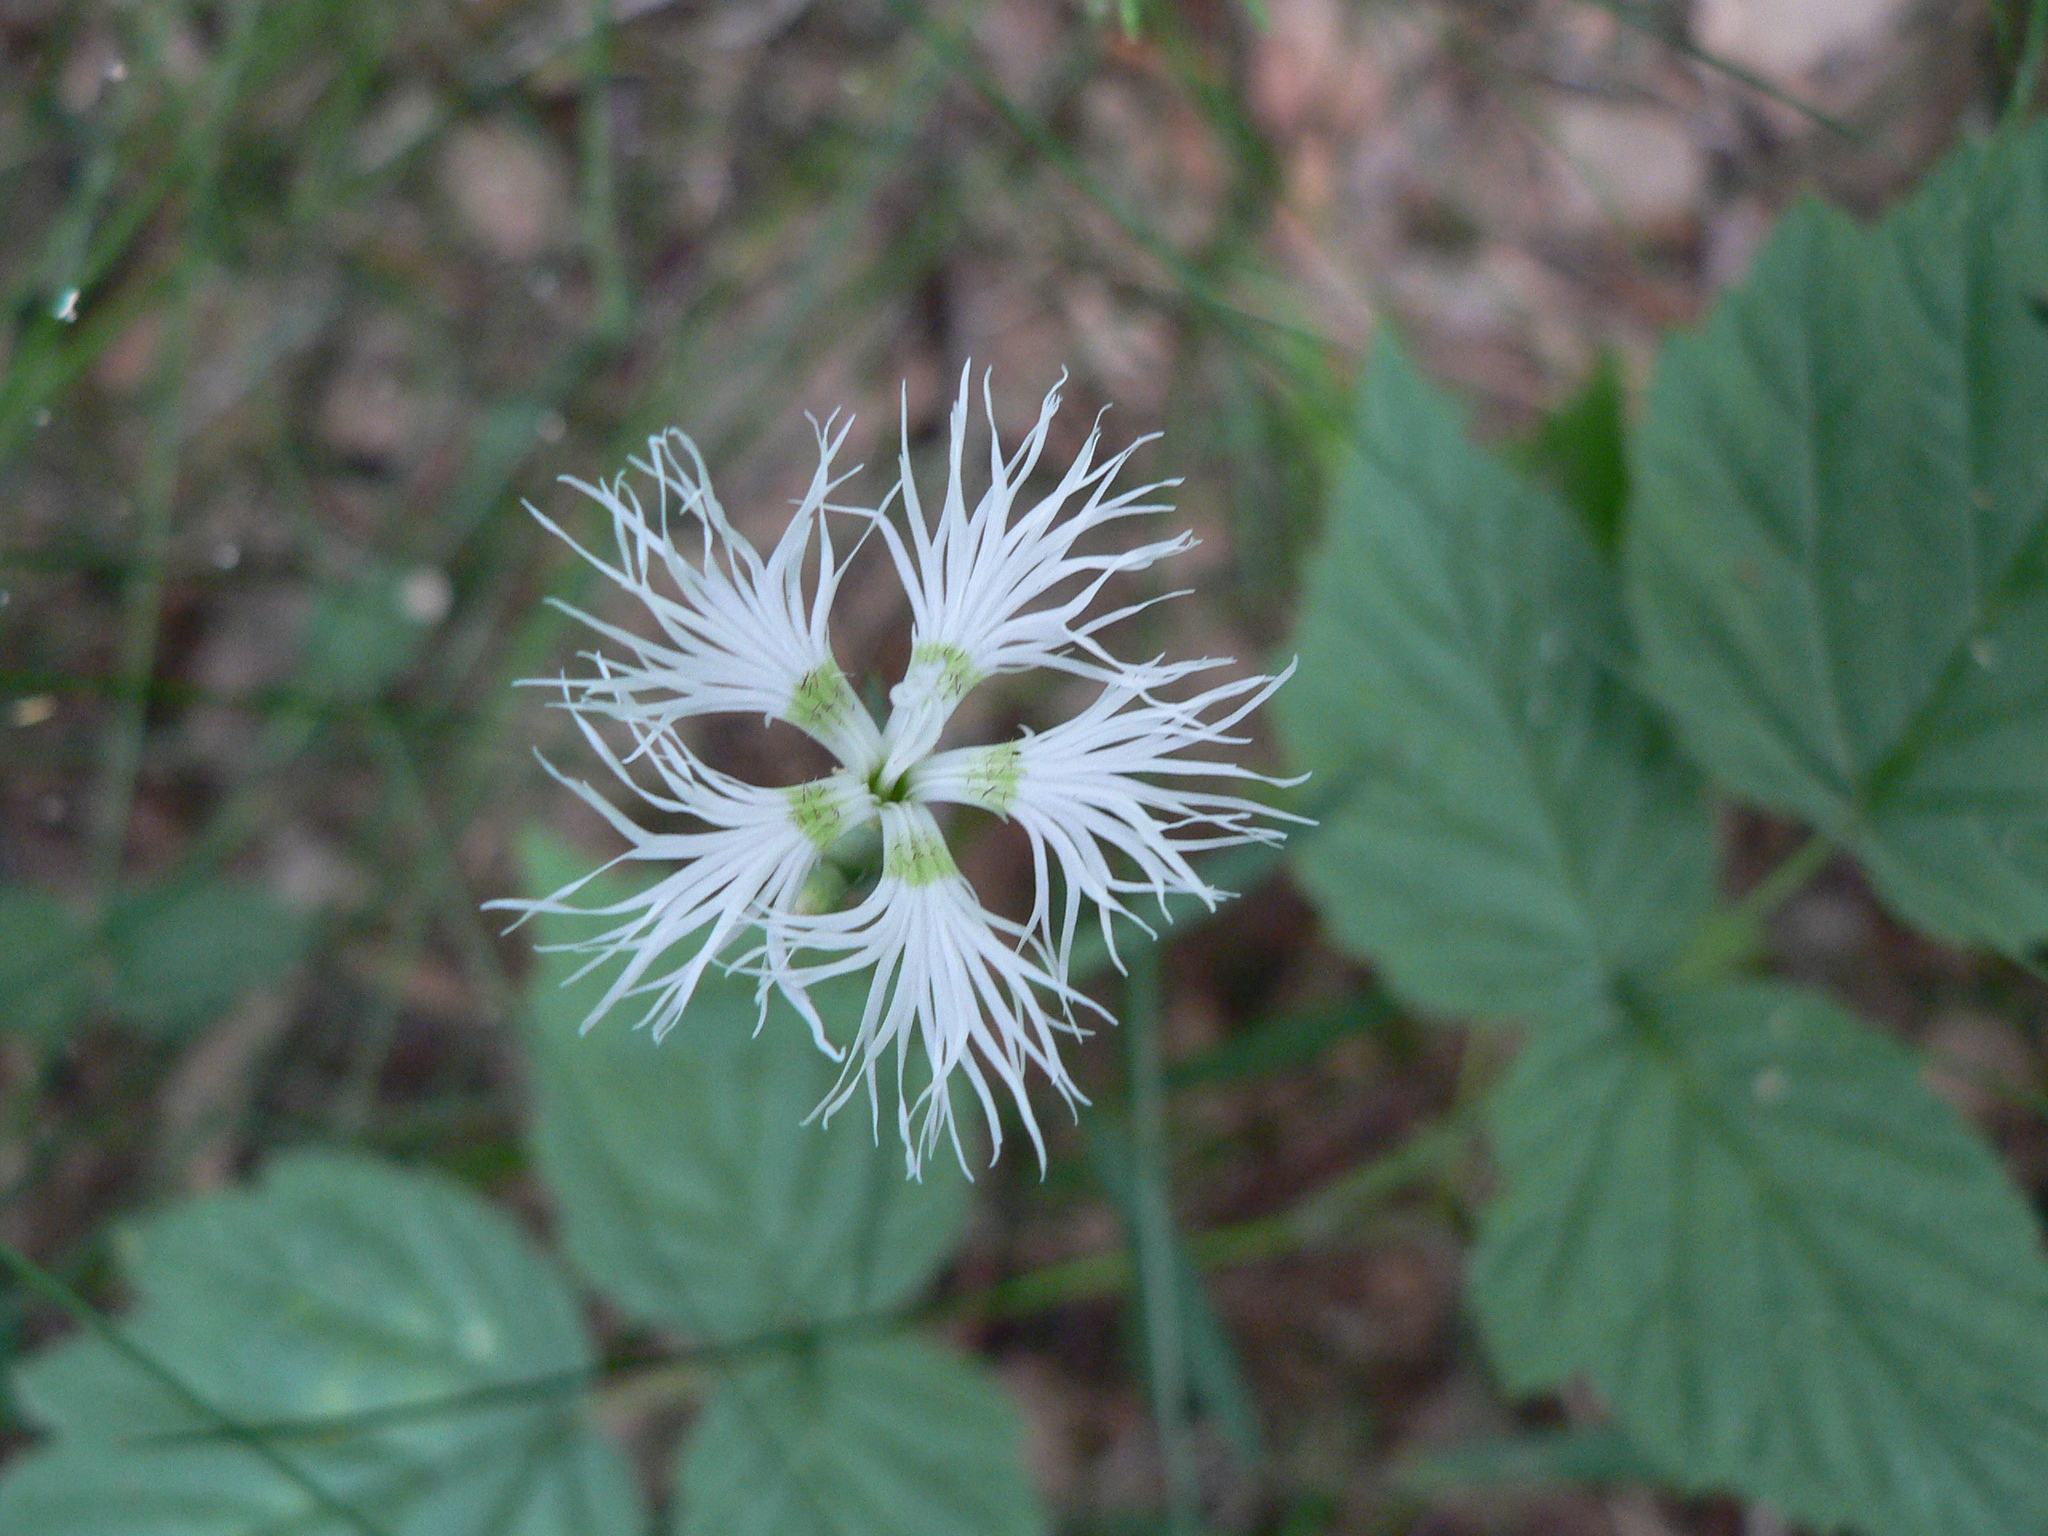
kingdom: Plantae
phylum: Tracheophyta
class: Magnoliopsida
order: Caryophyllales
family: Caryophyllaceae
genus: Dianthus
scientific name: Dianthus arenarius
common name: Stone pink
